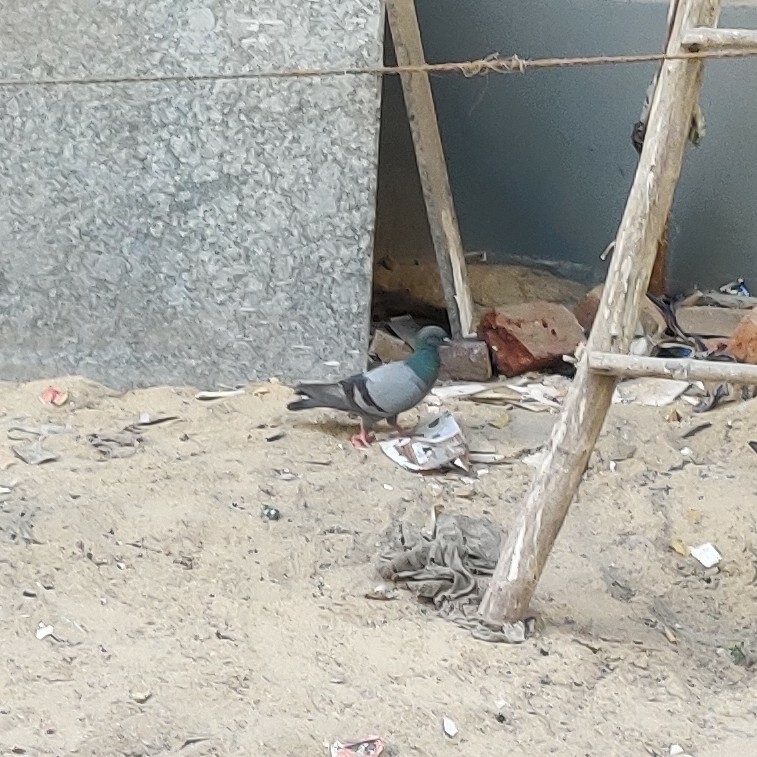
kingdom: Animalia
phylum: Chordata
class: Aves
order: Columbiformes
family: Columbidae
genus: Columba
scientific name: Columba livia
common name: Rock pigeon
